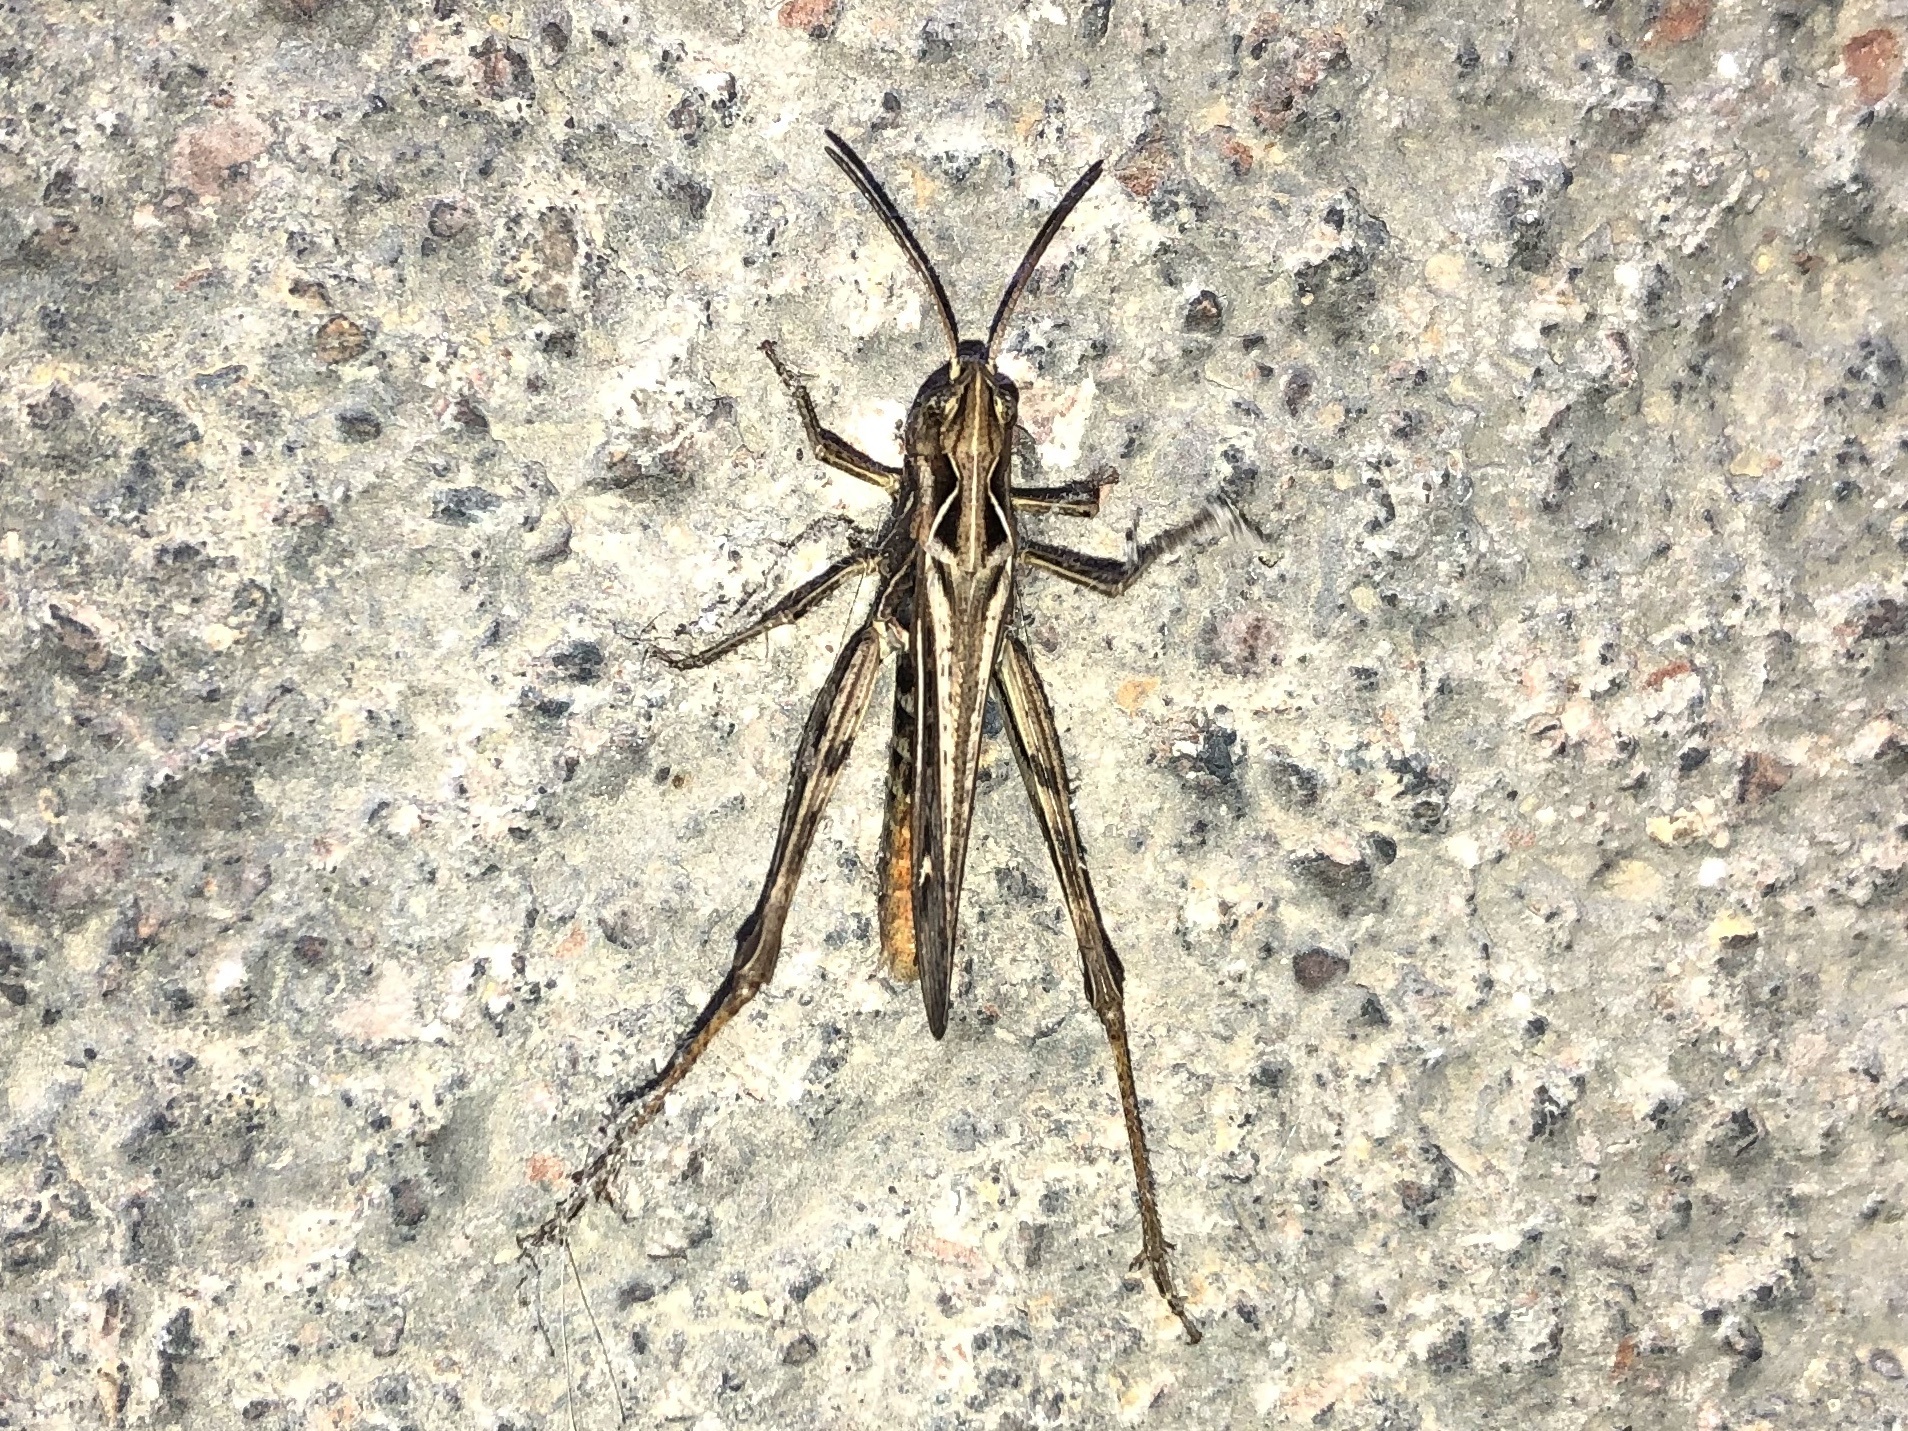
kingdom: Animalia
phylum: Arthropoda
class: Insecta
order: Orthoptera
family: Acrididae
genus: Chorthippus
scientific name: Chorthippus brunneus
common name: Field grasshopper
